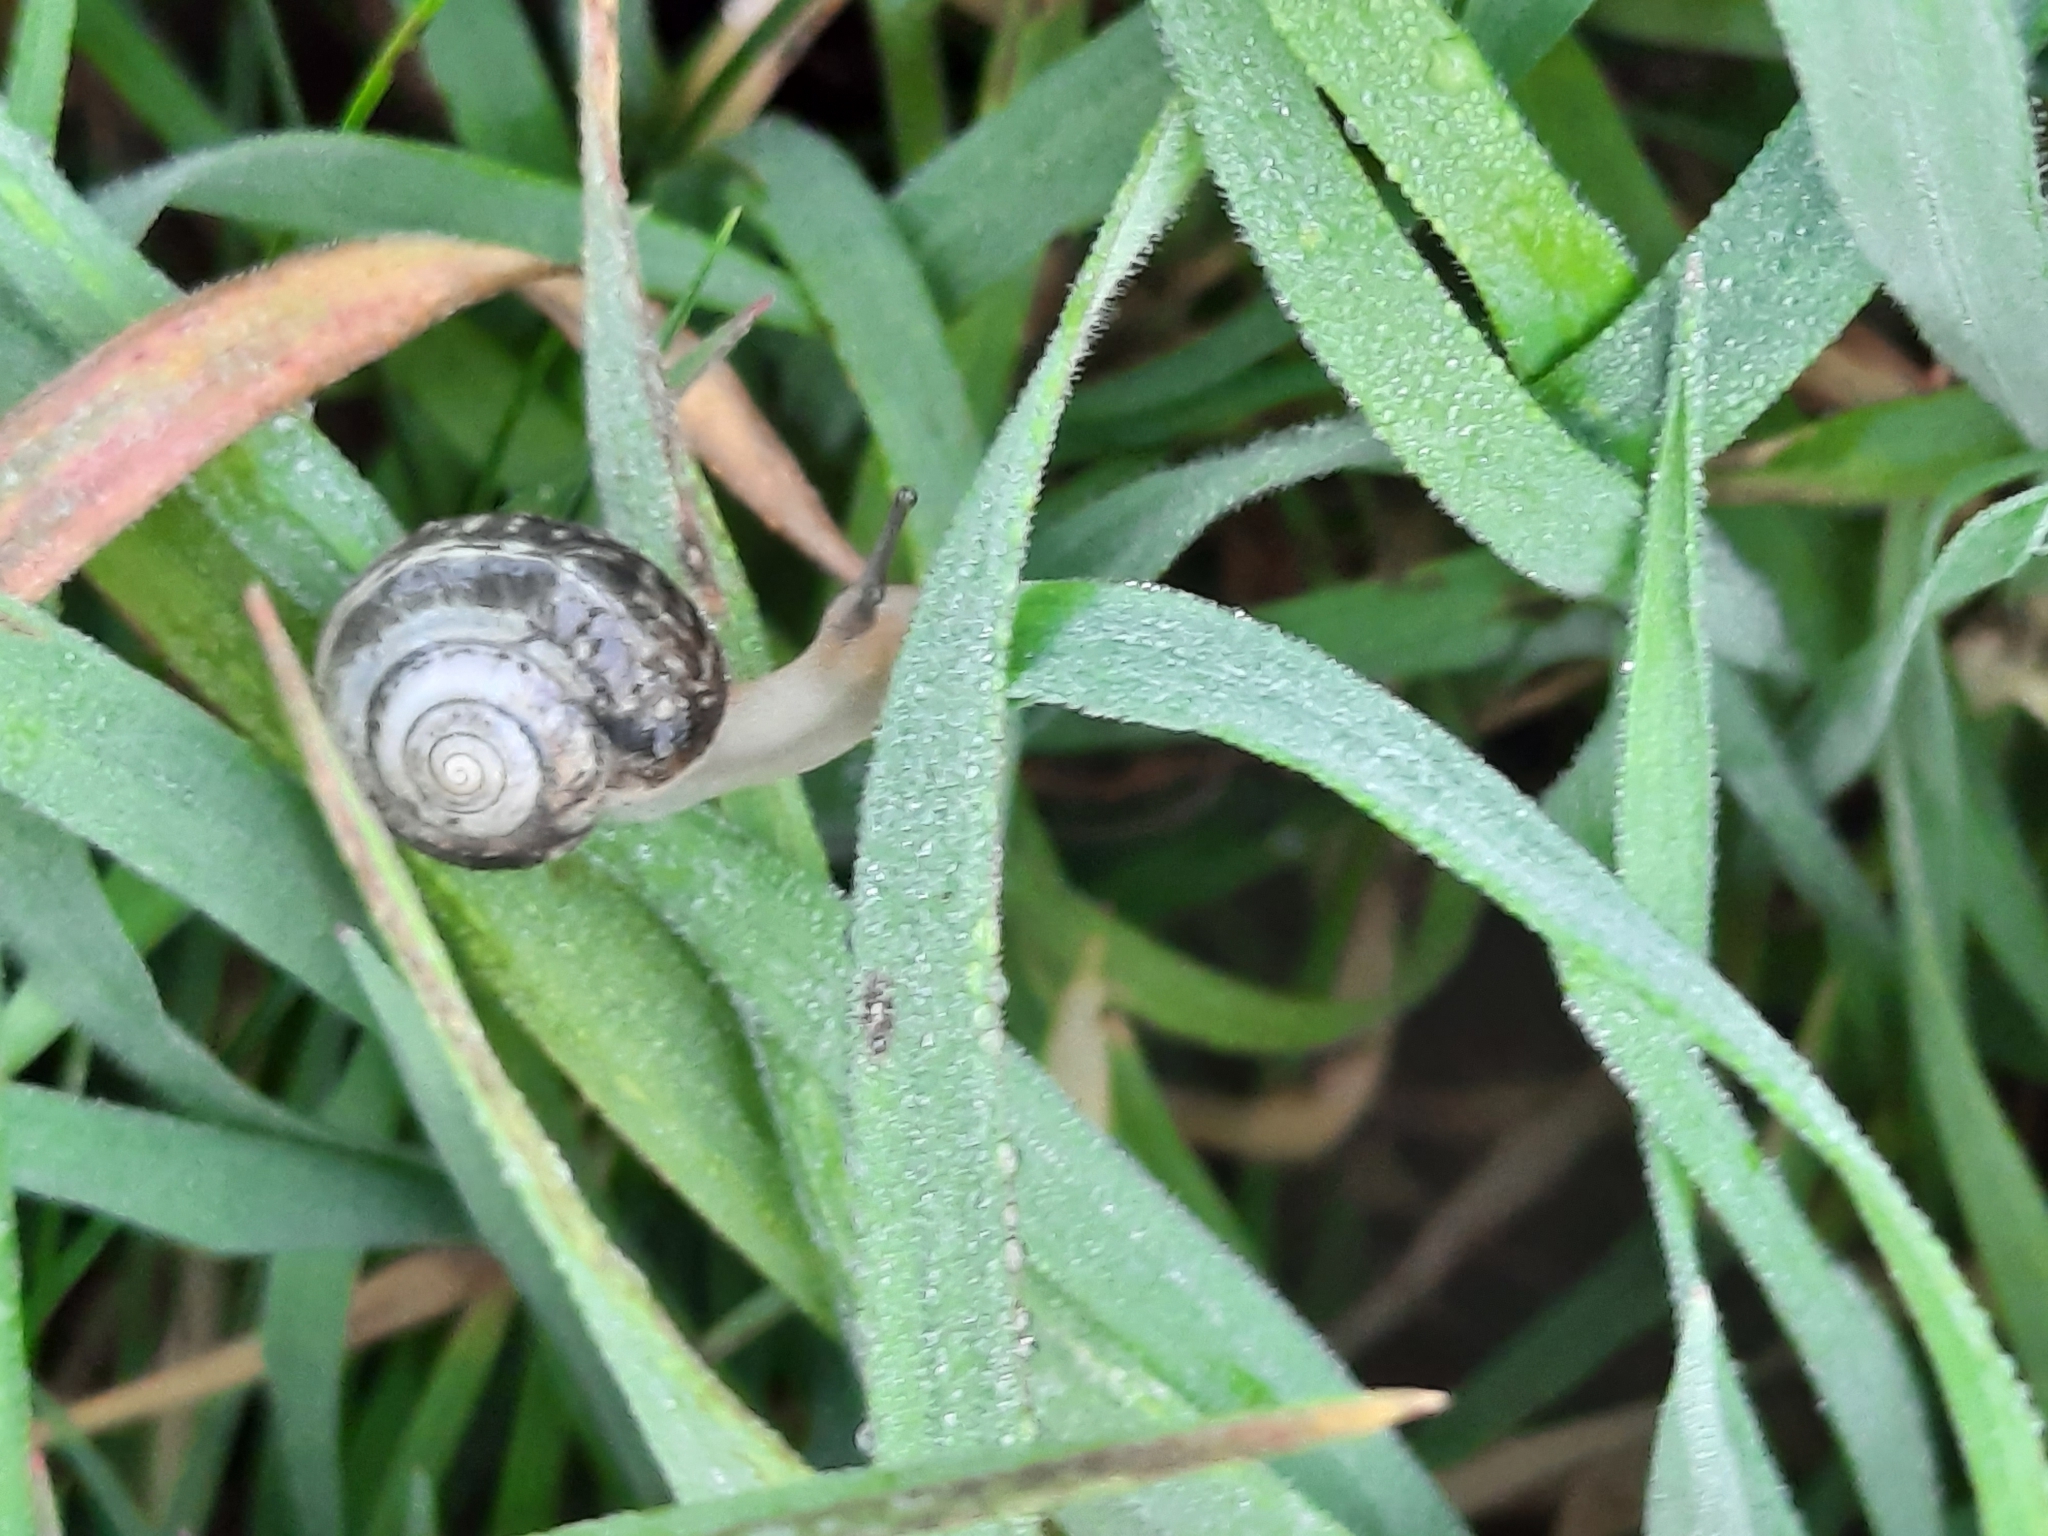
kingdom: Animalia
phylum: Mollusca
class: Gastropoda
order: Stylommatophora
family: Hygromiidae
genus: Monacha
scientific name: Monacha cantiana
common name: Kentish snail
